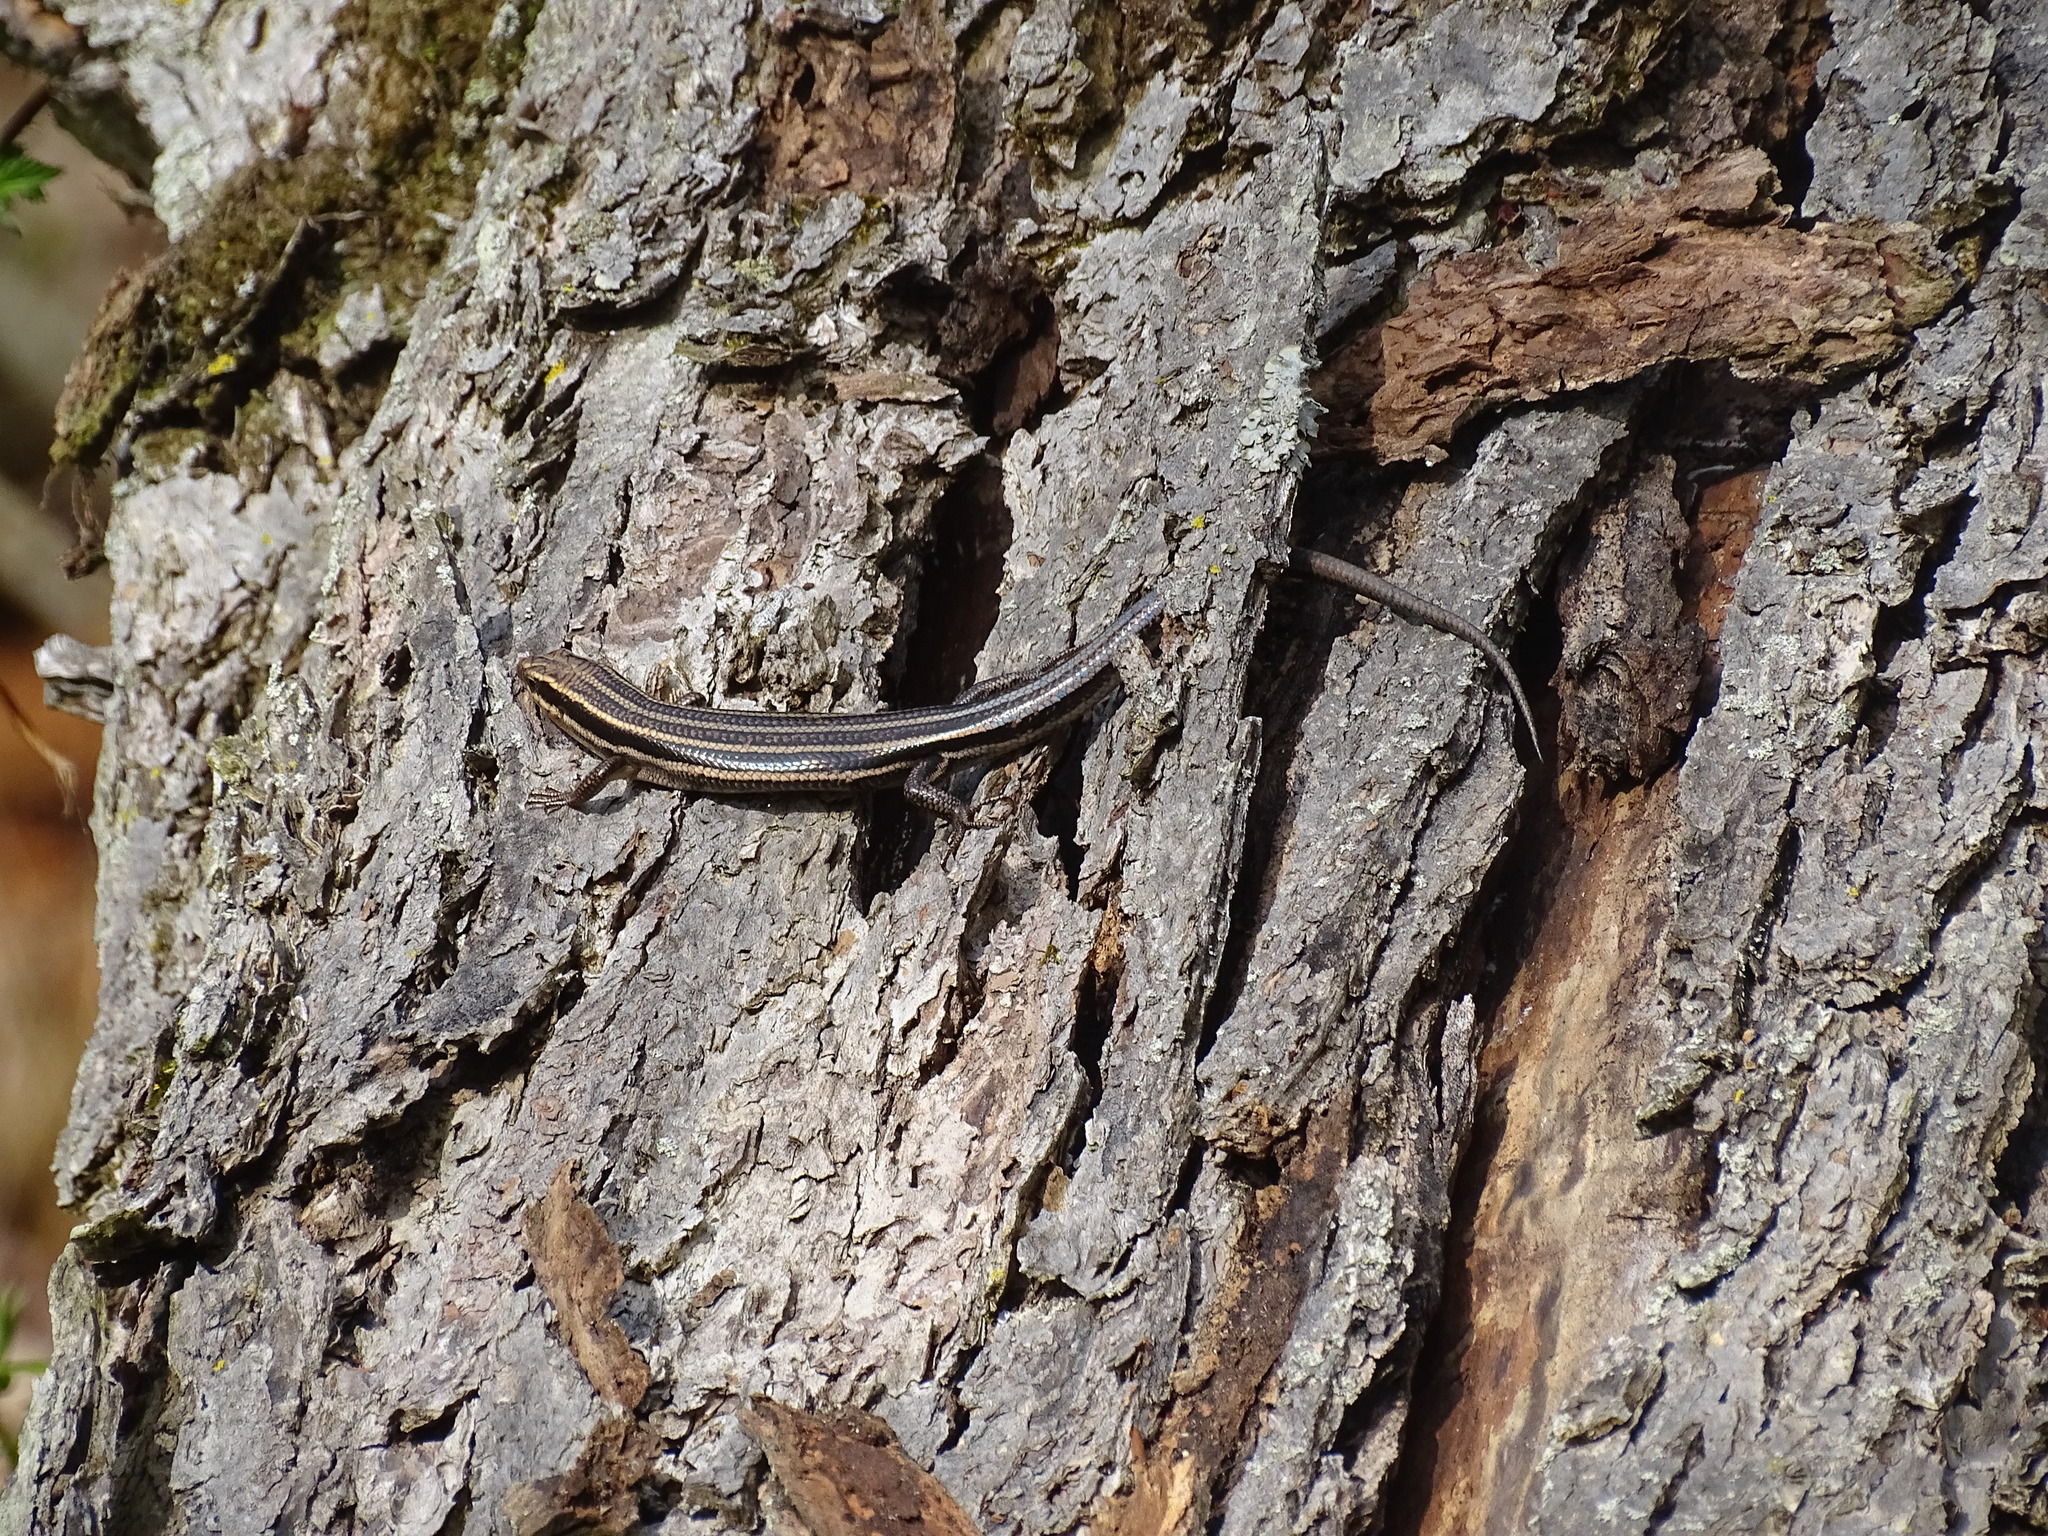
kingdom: Animalia
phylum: Chordata
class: Squamata
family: Scincidae
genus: Plestiodon
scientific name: Plestiodon fasciatus
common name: Five-lined skink
